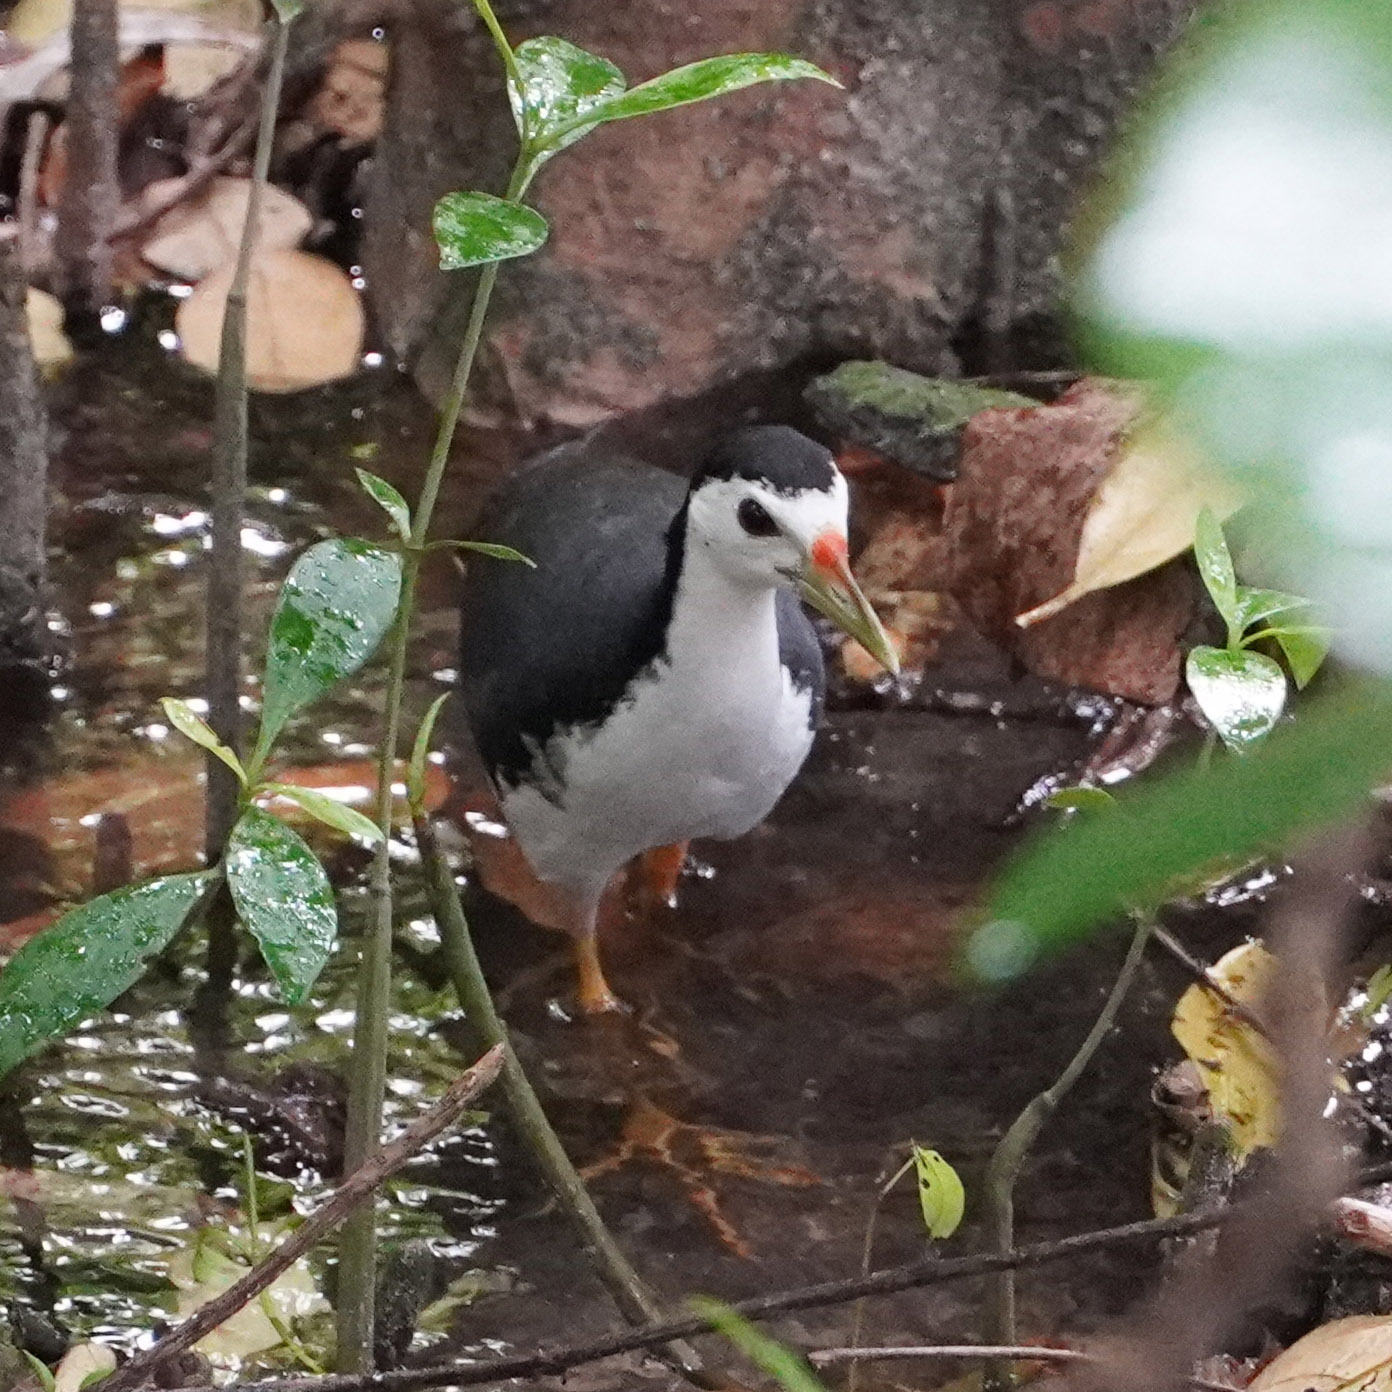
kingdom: Animalia
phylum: Chordata
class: Aves
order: Gruiformes
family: Rallidae
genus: Amaurornis
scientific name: Amaurornis phoenicurus
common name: White-breasted waterhen
